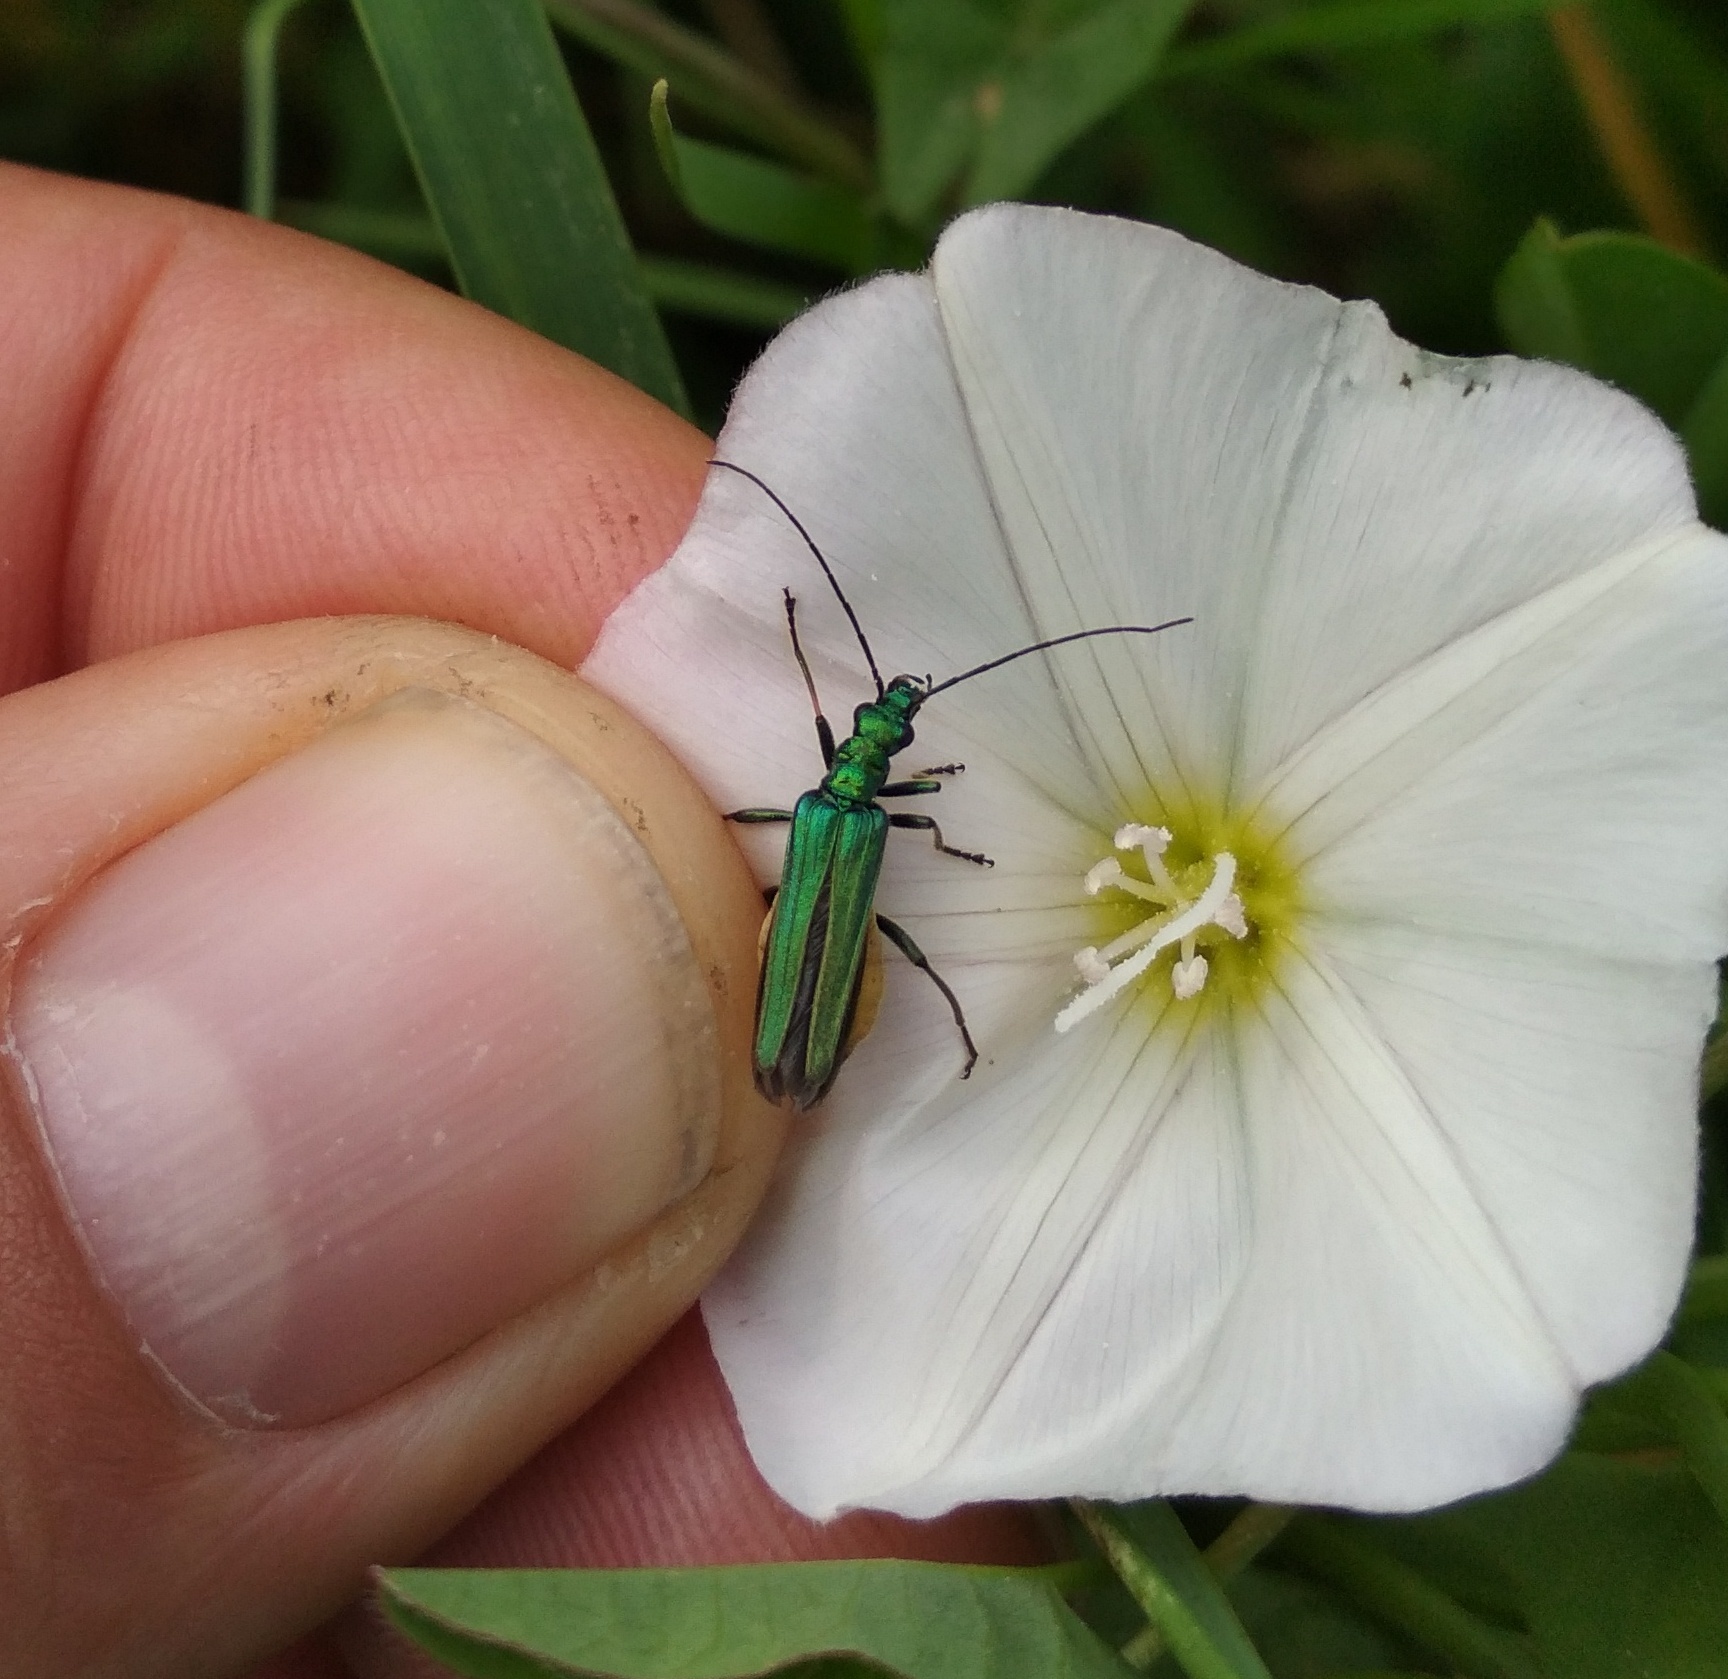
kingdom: Animalia
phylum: Arthropoda
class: Insecta
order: Coleoptera
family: Oedemeridae
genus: Oedemera
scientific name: Oedemera nobilis
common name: Swollen-thighed beetle
